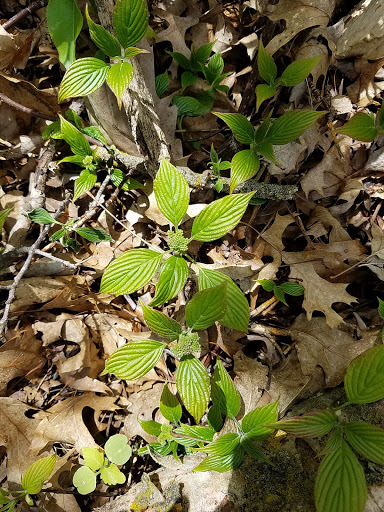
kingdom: Plantae
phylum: Tracheophyta
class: Magnoliopsida
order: Cornales
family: Cornaceae
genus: Cornus
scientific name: Cornus alternifolia
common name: Pagoda dogwood
